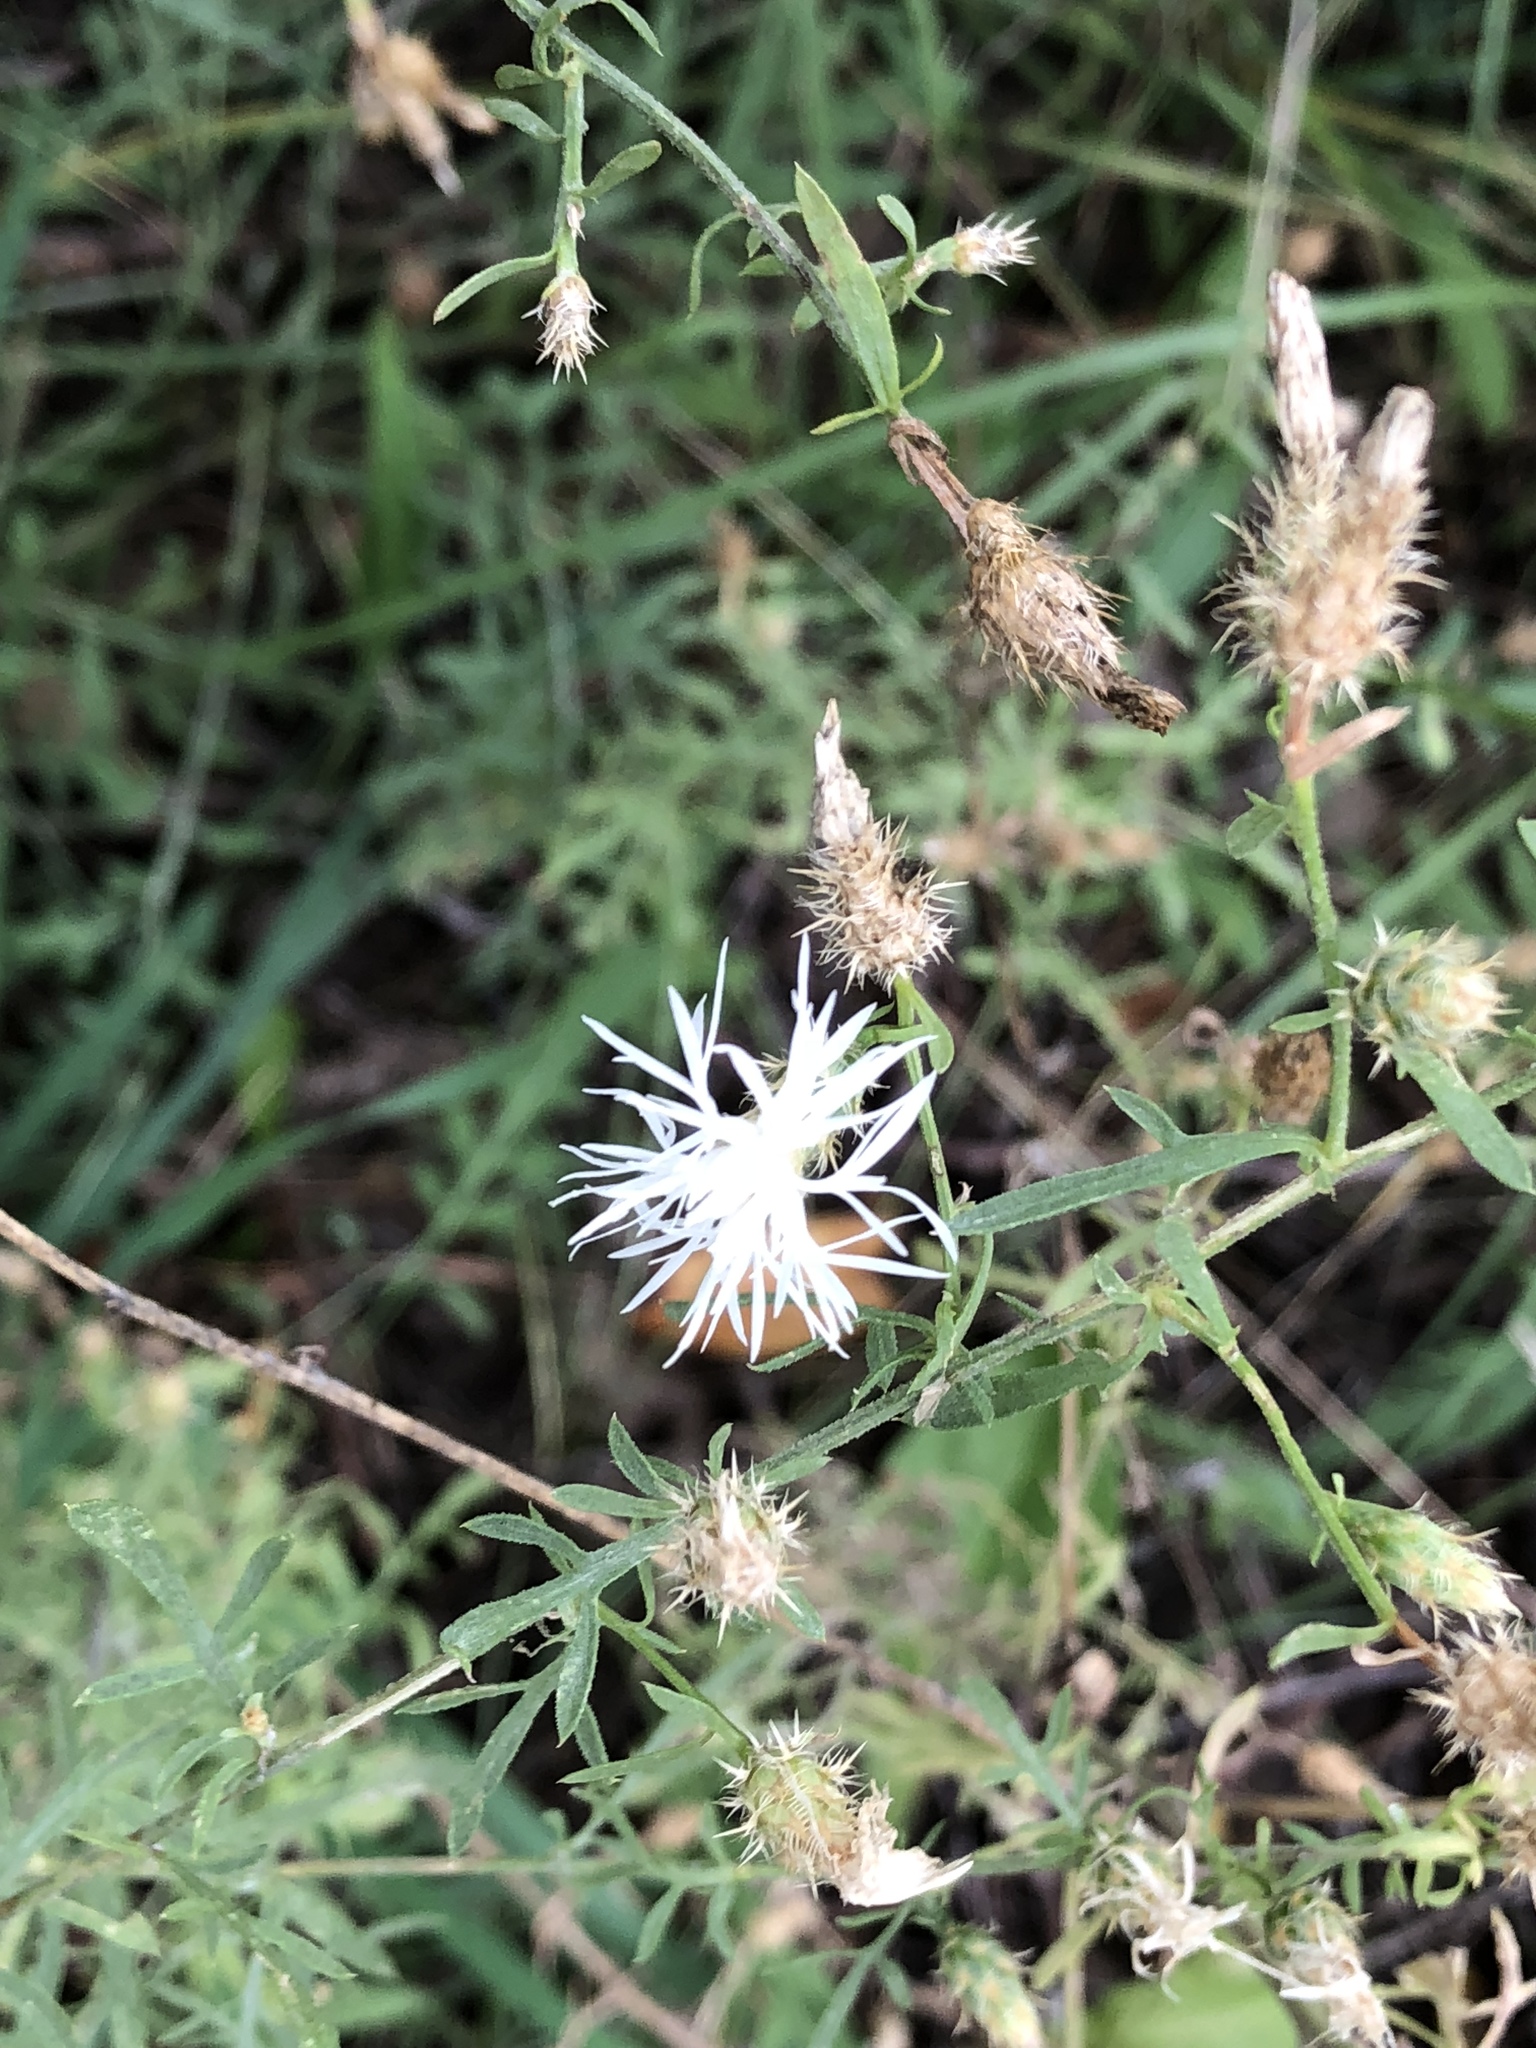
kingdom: Plantae
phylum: Tracheophyta
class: Magnoliopsida
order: Asterales
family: Asteraceae
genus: Centaurea
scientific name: Centaurea diffusa
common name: Diffuse knapweed
